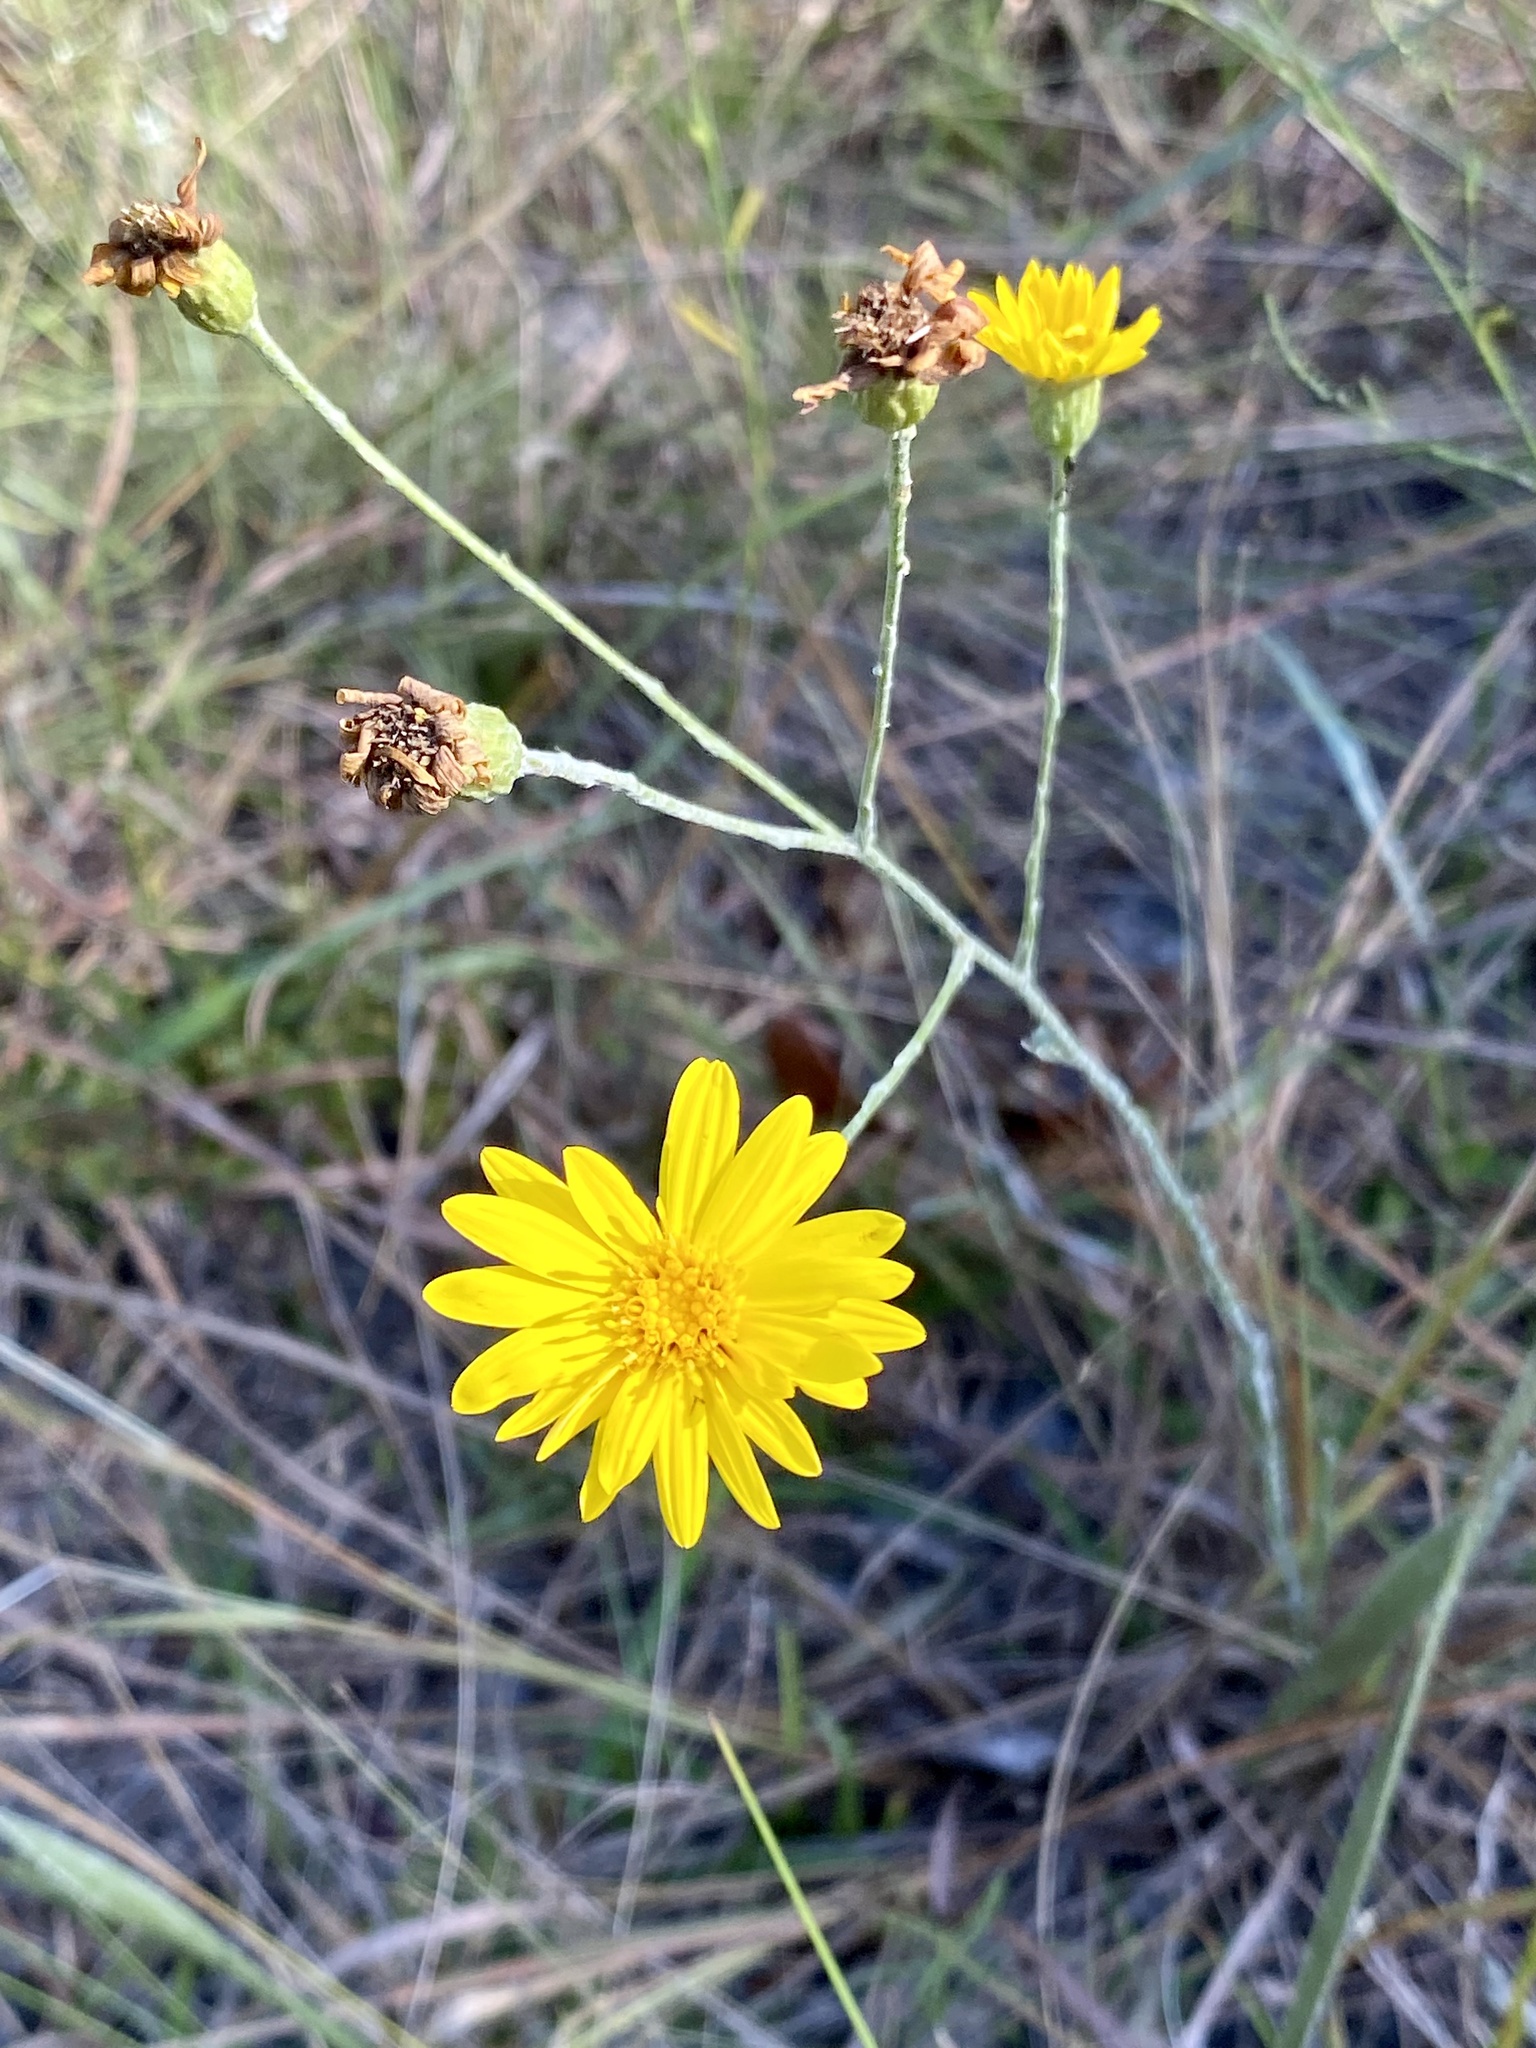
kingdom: Plantae
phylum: Tracheophyta
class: Magnoliopsida
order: Asterales
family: Asteraceae
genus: Pityopsis
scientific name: Pityopsis tracyi
